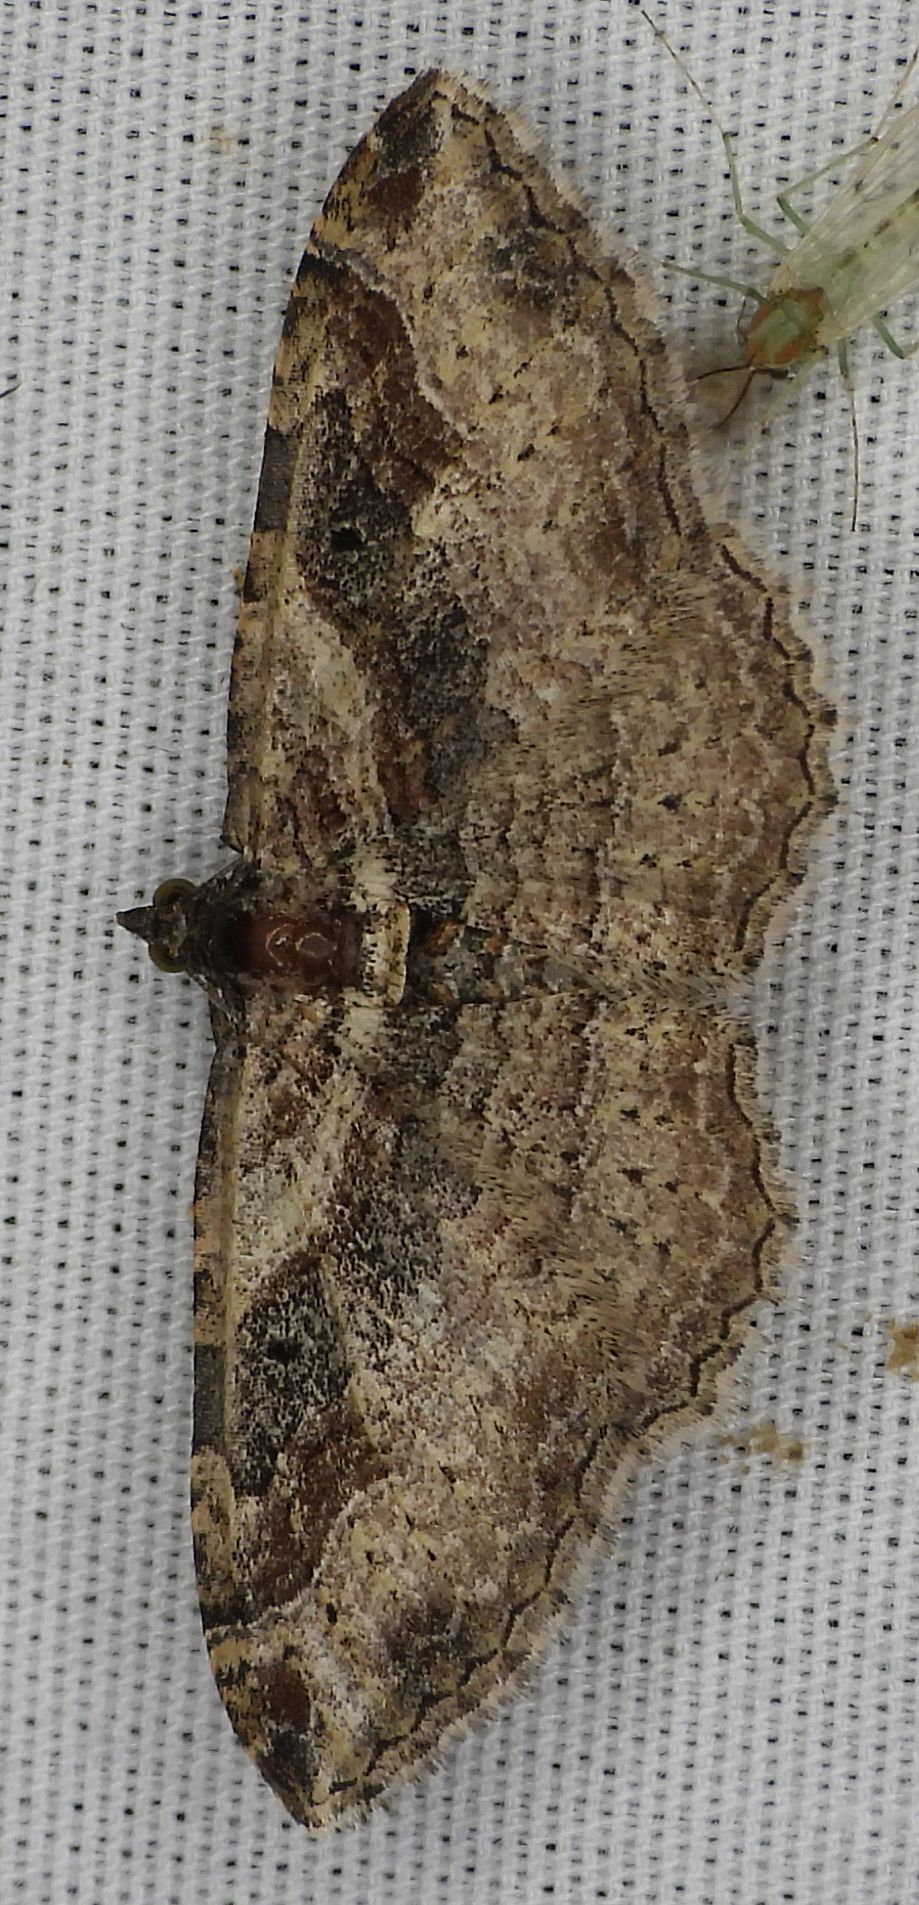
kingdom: Animalia
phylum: Arthropoda
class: Insecta
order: Lepidoptera
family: Geometridae
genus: Costaconvexa
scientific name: Costaconvexa centrostrigaria
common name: Bent-line carpet
